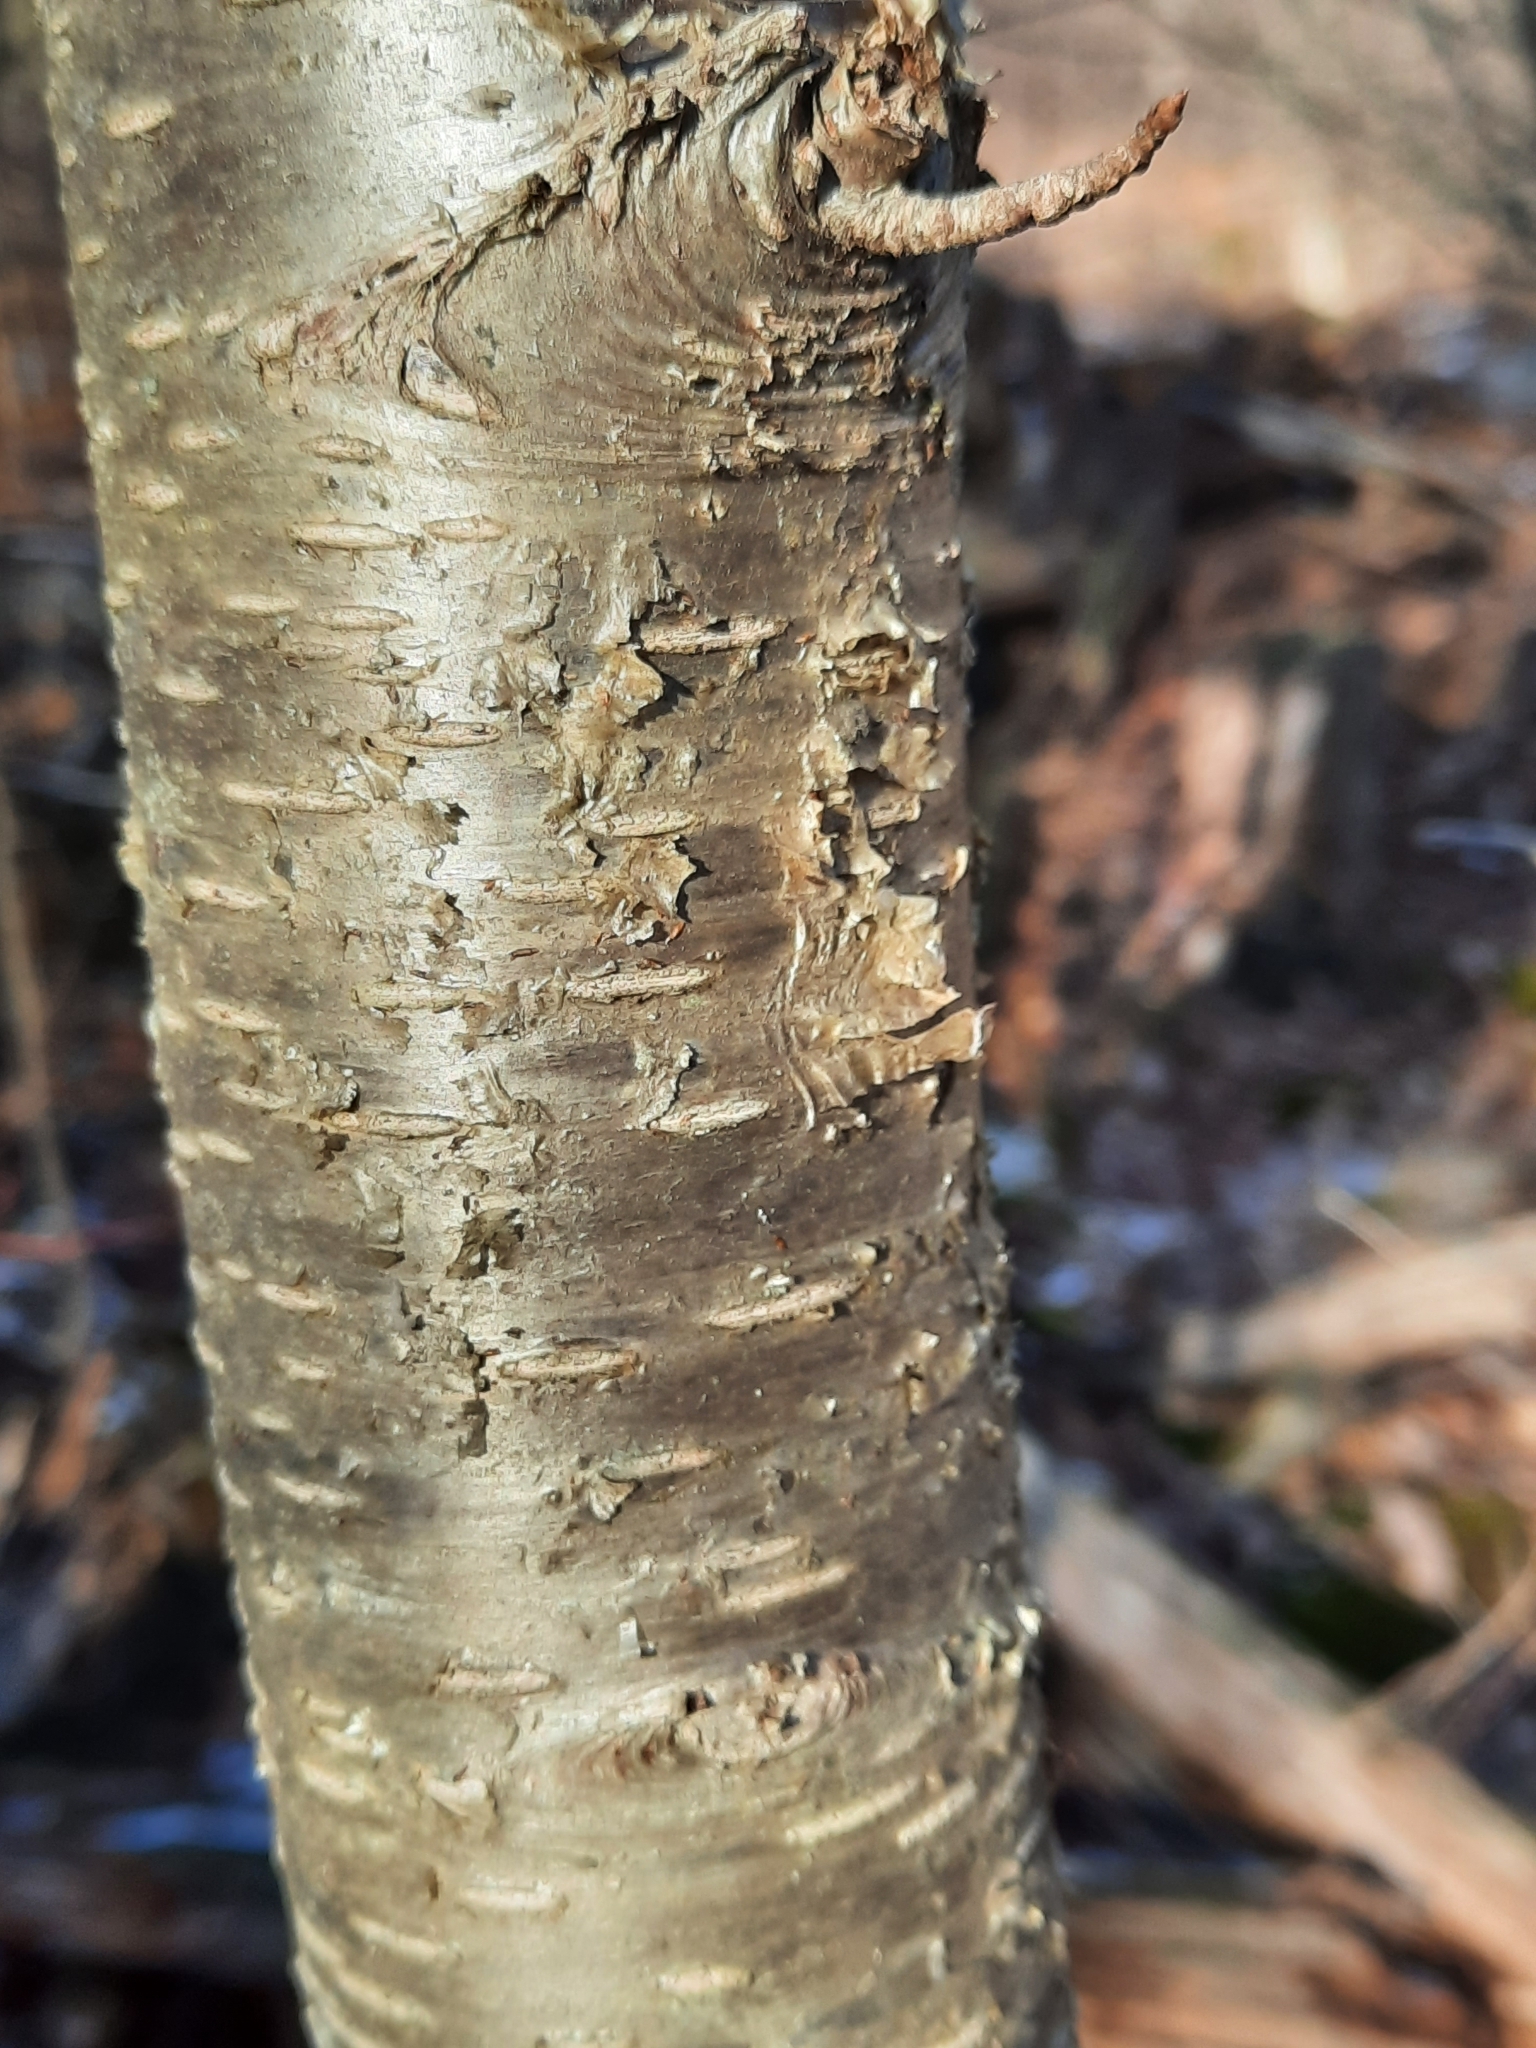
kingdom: Plantae
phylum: Tracheophyta
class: Magnoliopsida
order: Fagales
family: Betulaceae
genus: Betula
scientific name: Betula alleghaniensis
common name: Yellow birch
